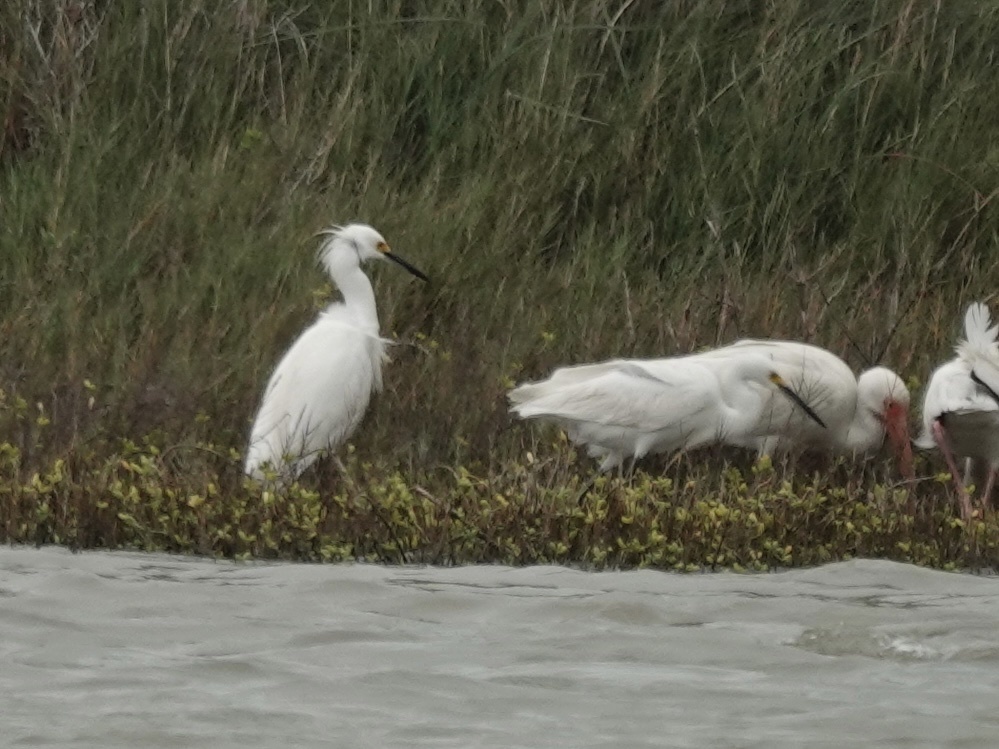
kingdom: Animalia
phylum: Chordata
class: Aves
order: Pelecaniformes
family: Ardeidae
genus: Egretta
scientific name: Egretta thula
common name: Snowy egret
